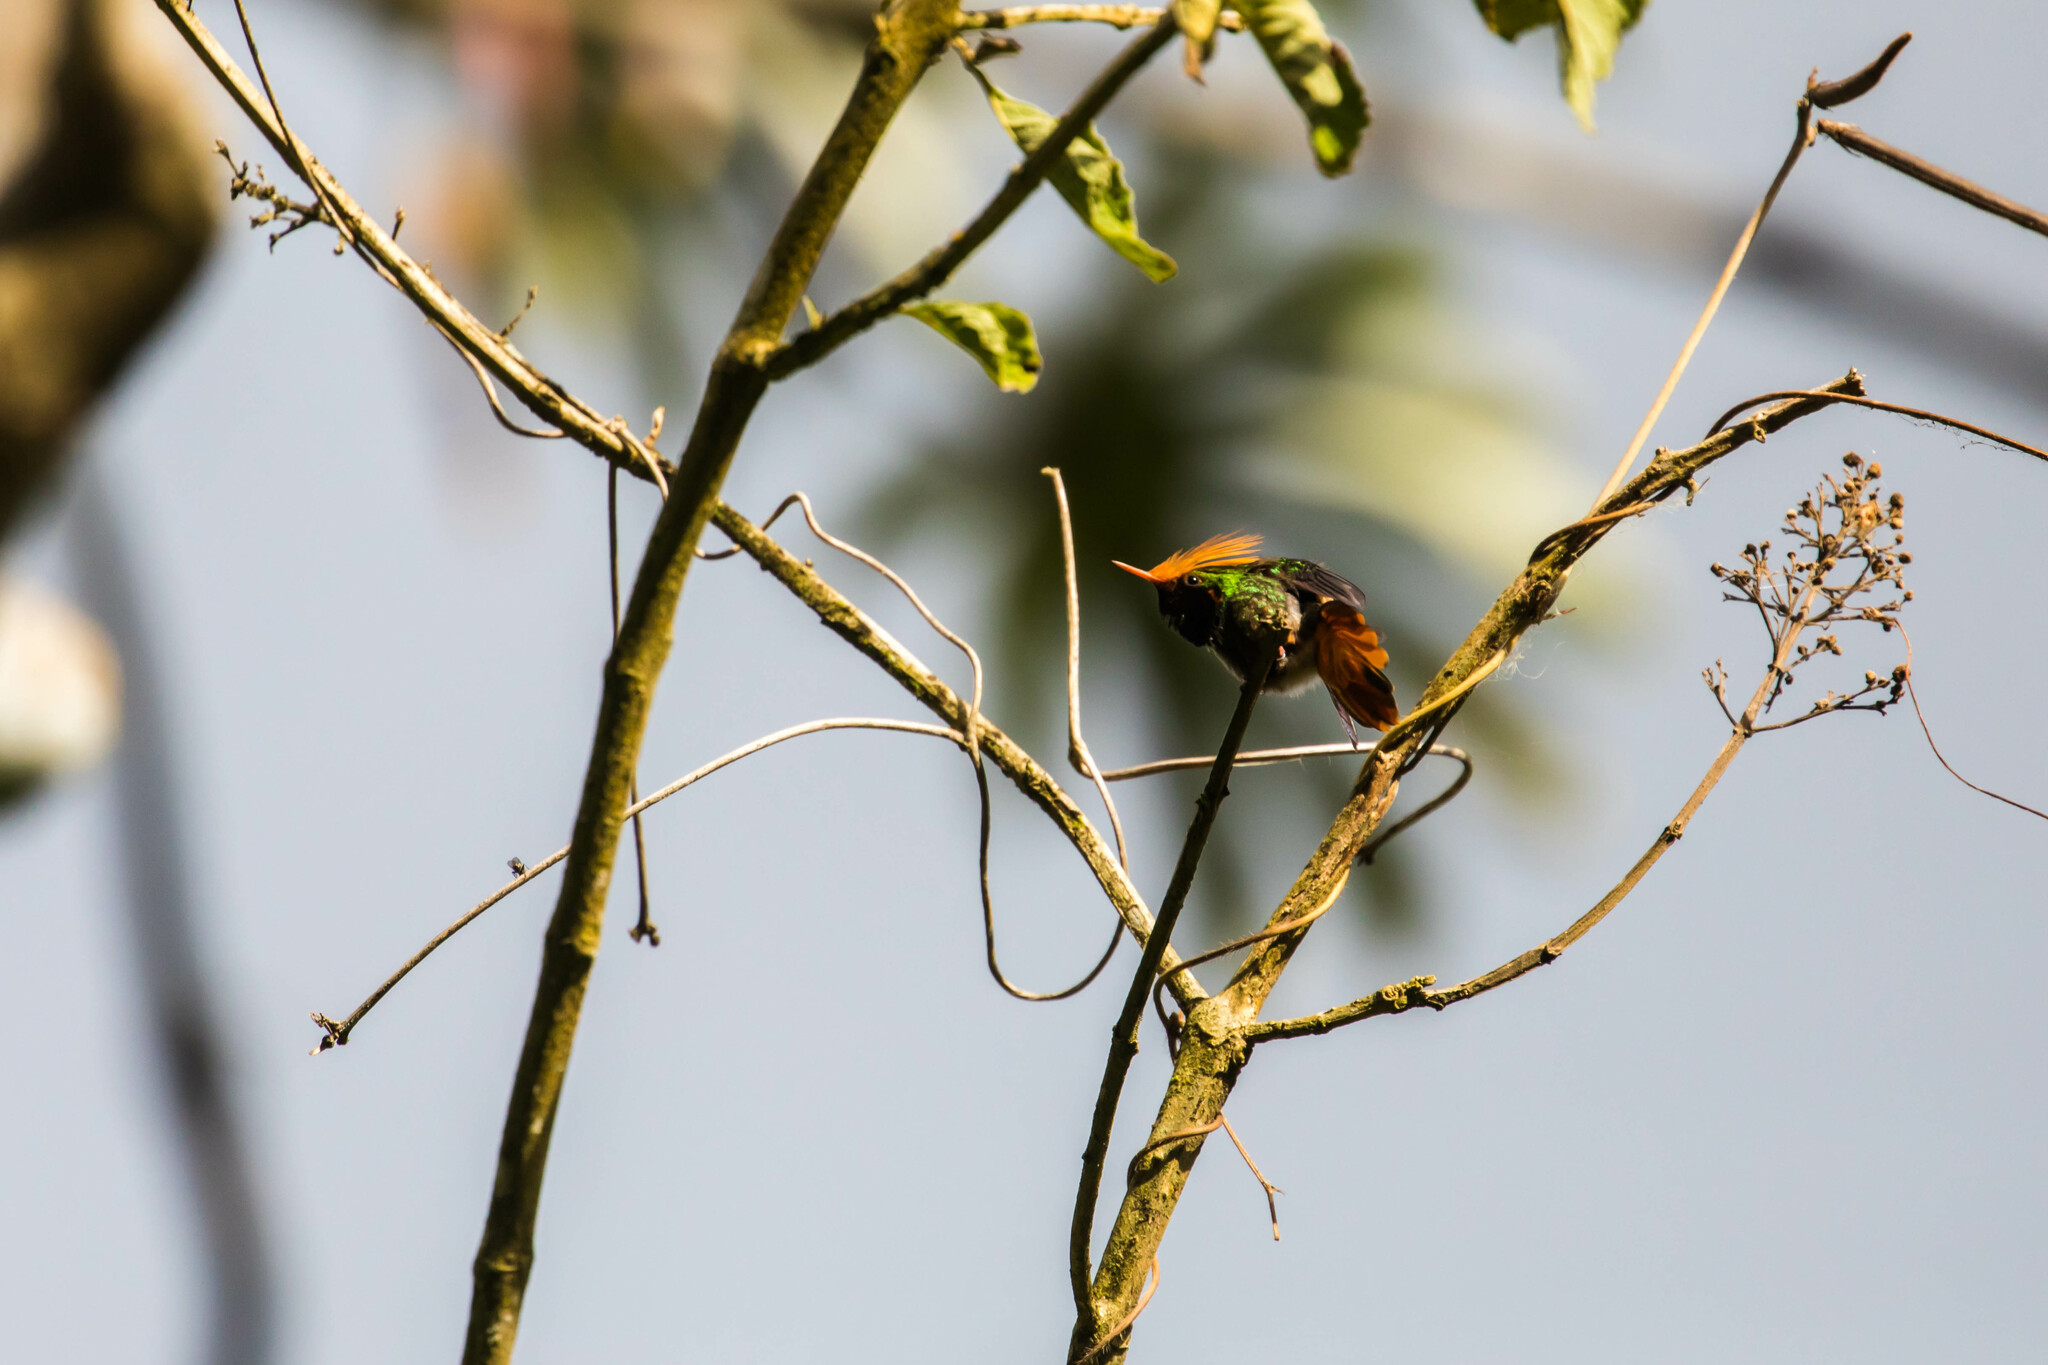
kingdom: Animalia
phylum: Chordata
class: Aves
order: Apodiformes
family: Trochilidae
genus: Lophornis
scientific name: Lophornis delattrei
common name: Rufous-crested coquette
